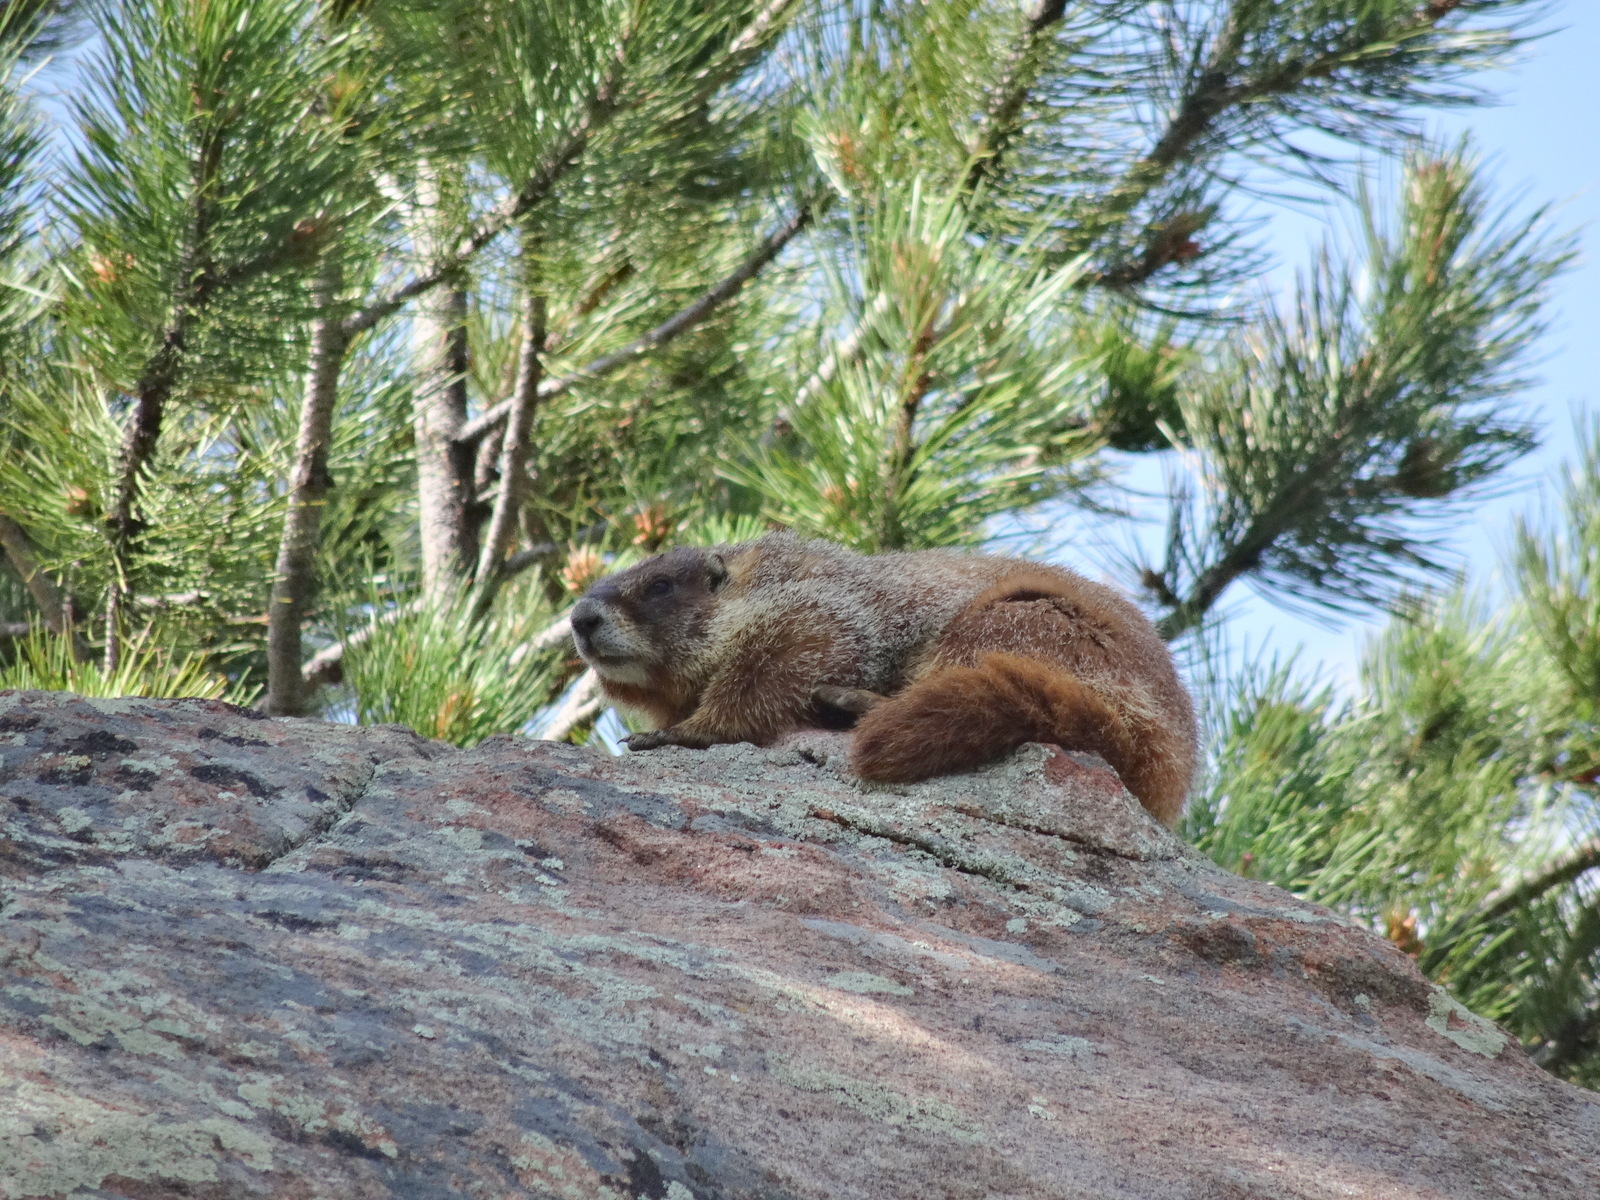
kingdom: Animalia
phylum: Chordata
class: Mammalia
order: Rodentia
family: Sciuridae
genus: Marmota
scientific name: Marmota flaviventris
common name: Yellow-bellied marmot
